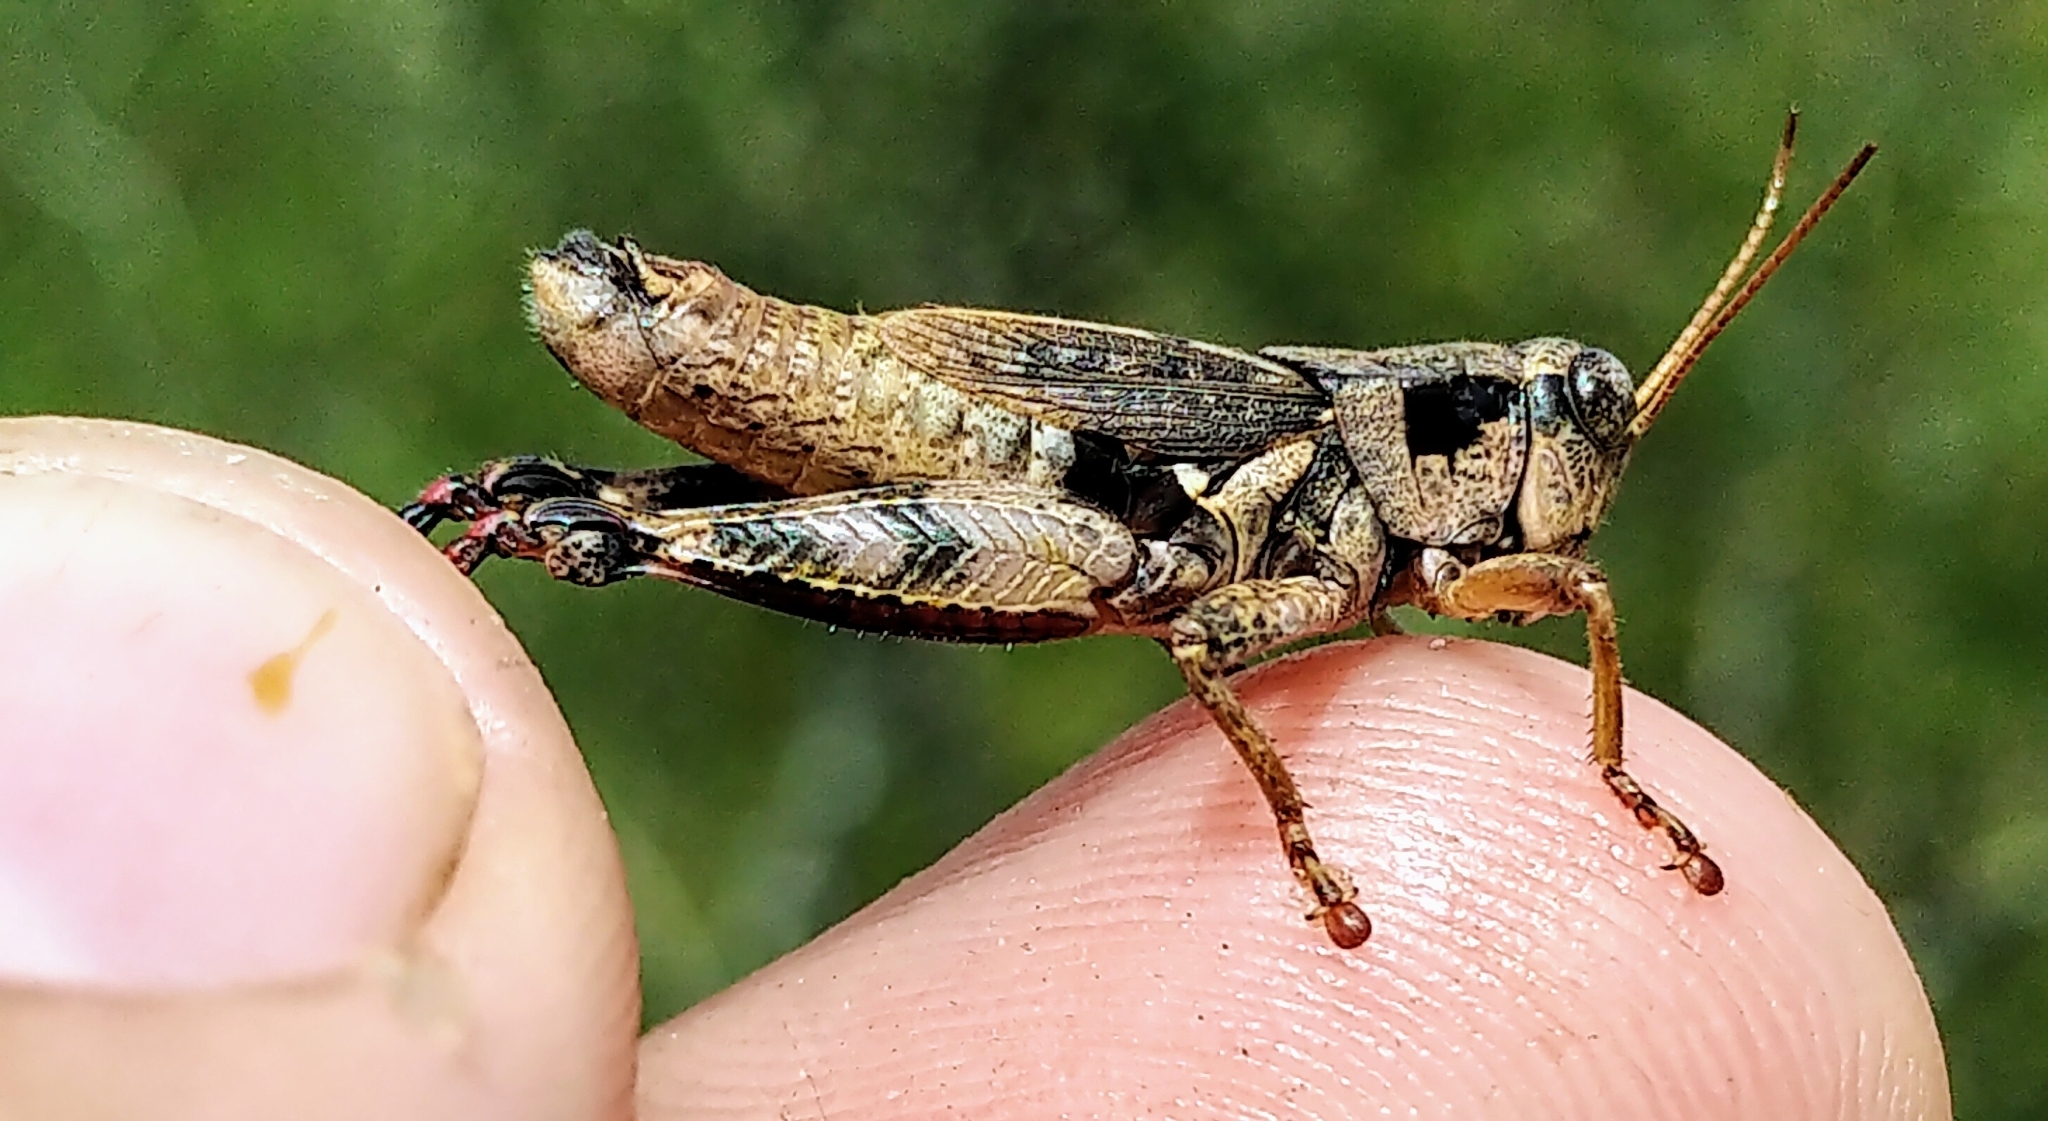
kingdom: Animalia
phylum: Arthropoda
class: Insecta
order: Orthoptera
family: Acrididae
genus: Melanoplus
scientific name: Melanoplus huroni
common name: Huron short-winged locust
